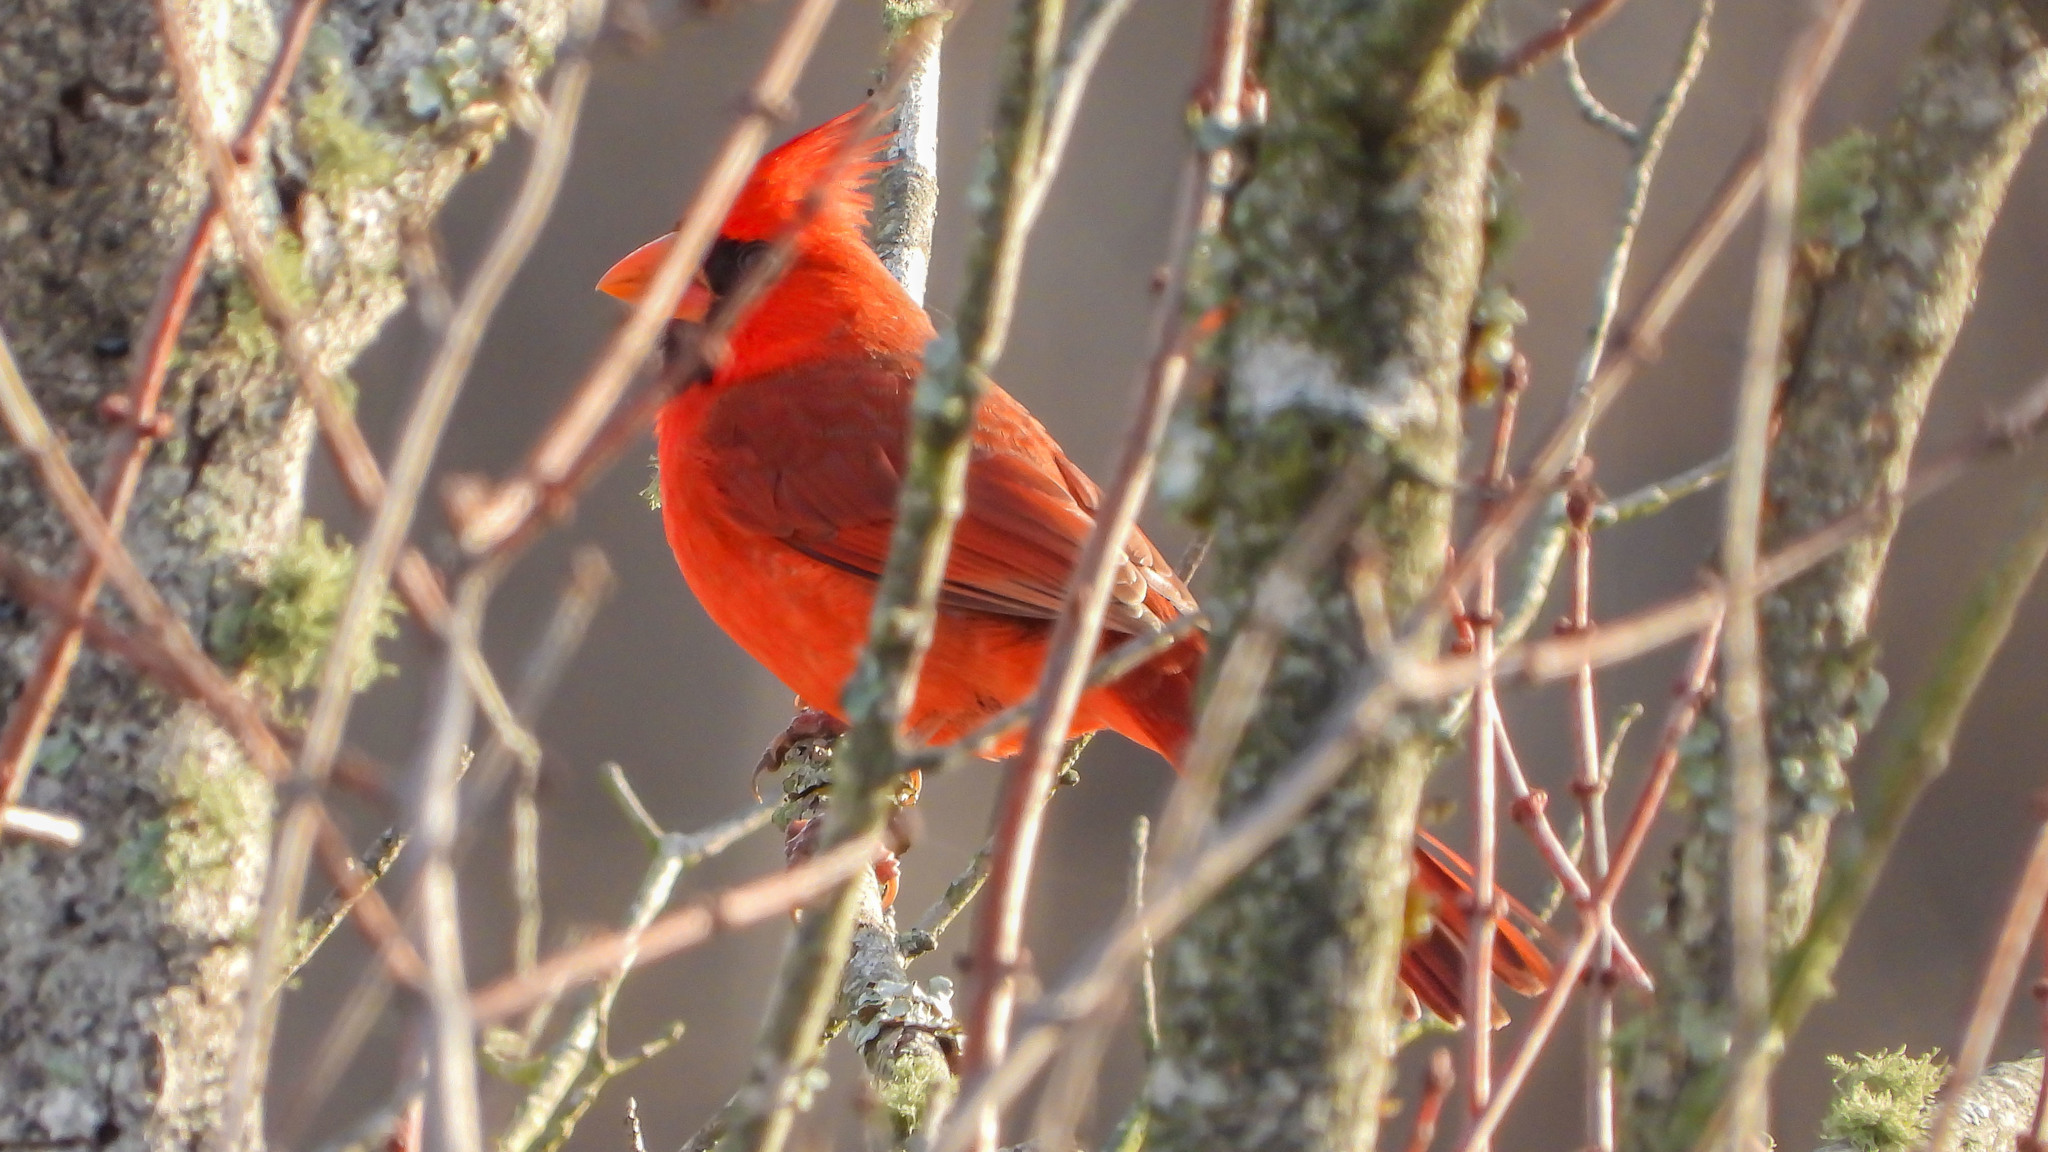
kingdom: Animalia
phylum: Chordata
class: Aves
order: Passeriformes
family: Cardinalidae
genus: Cardinalis
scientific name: Cardinalis cardinalis
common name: Northern cardinal
